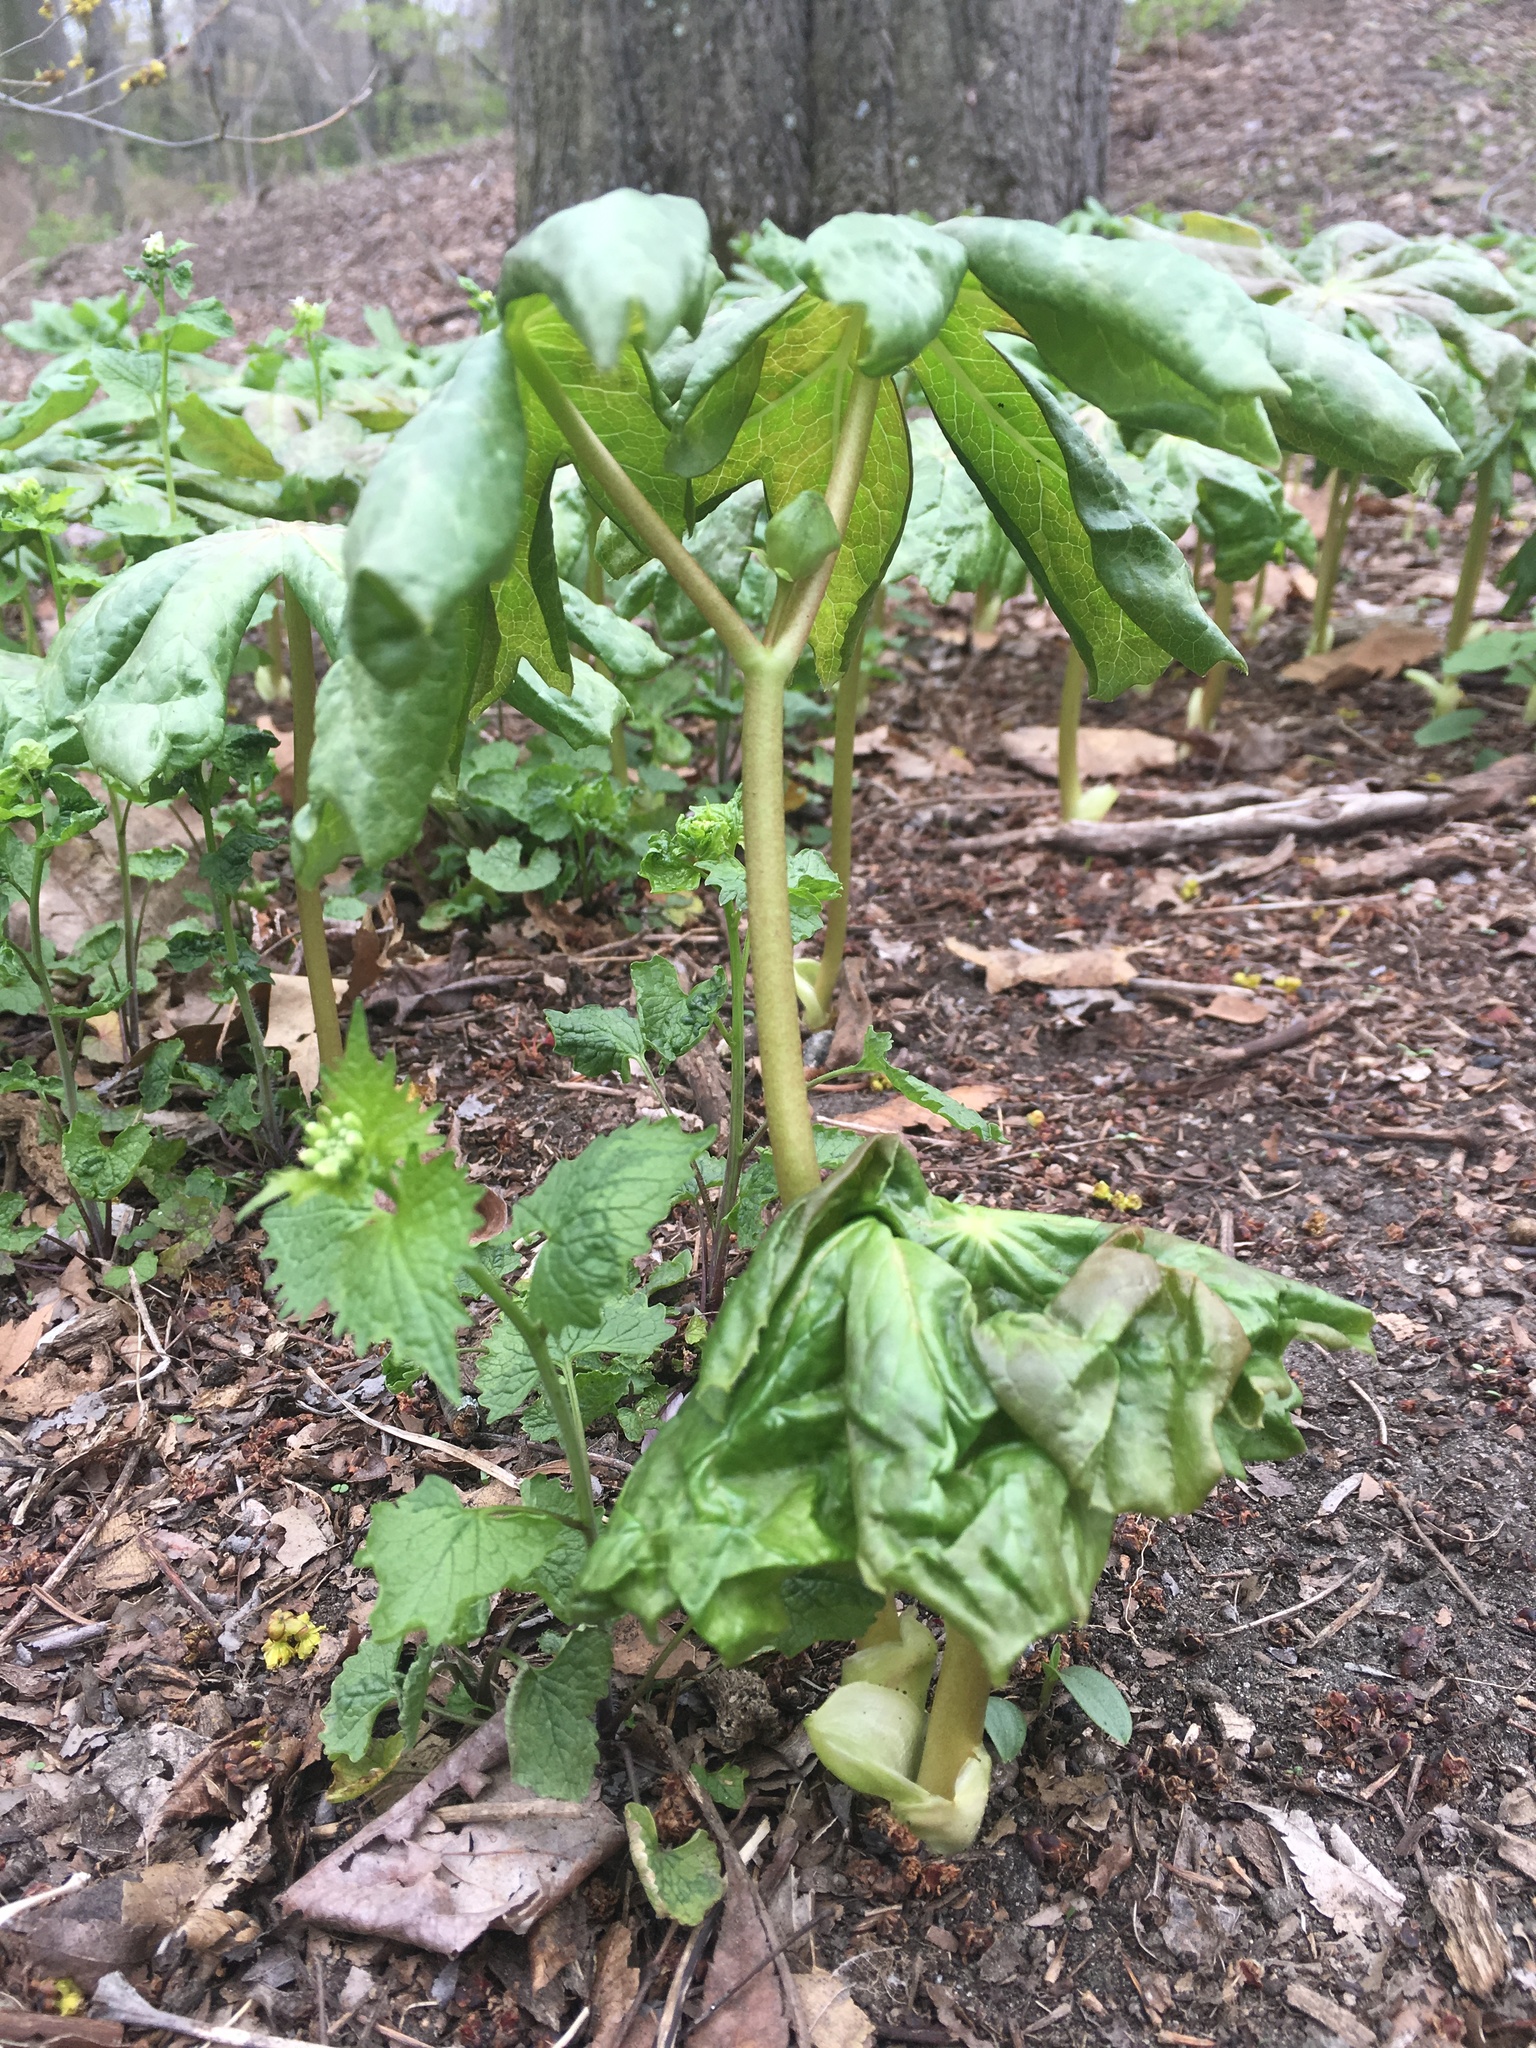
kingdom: Plantae
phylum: Tracheophyta
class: Magnoliopsida
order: Ranunculales
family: Berberidaceae
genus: Podophyllum
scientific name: Podophyllum peltatum
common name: Wild mandrake
